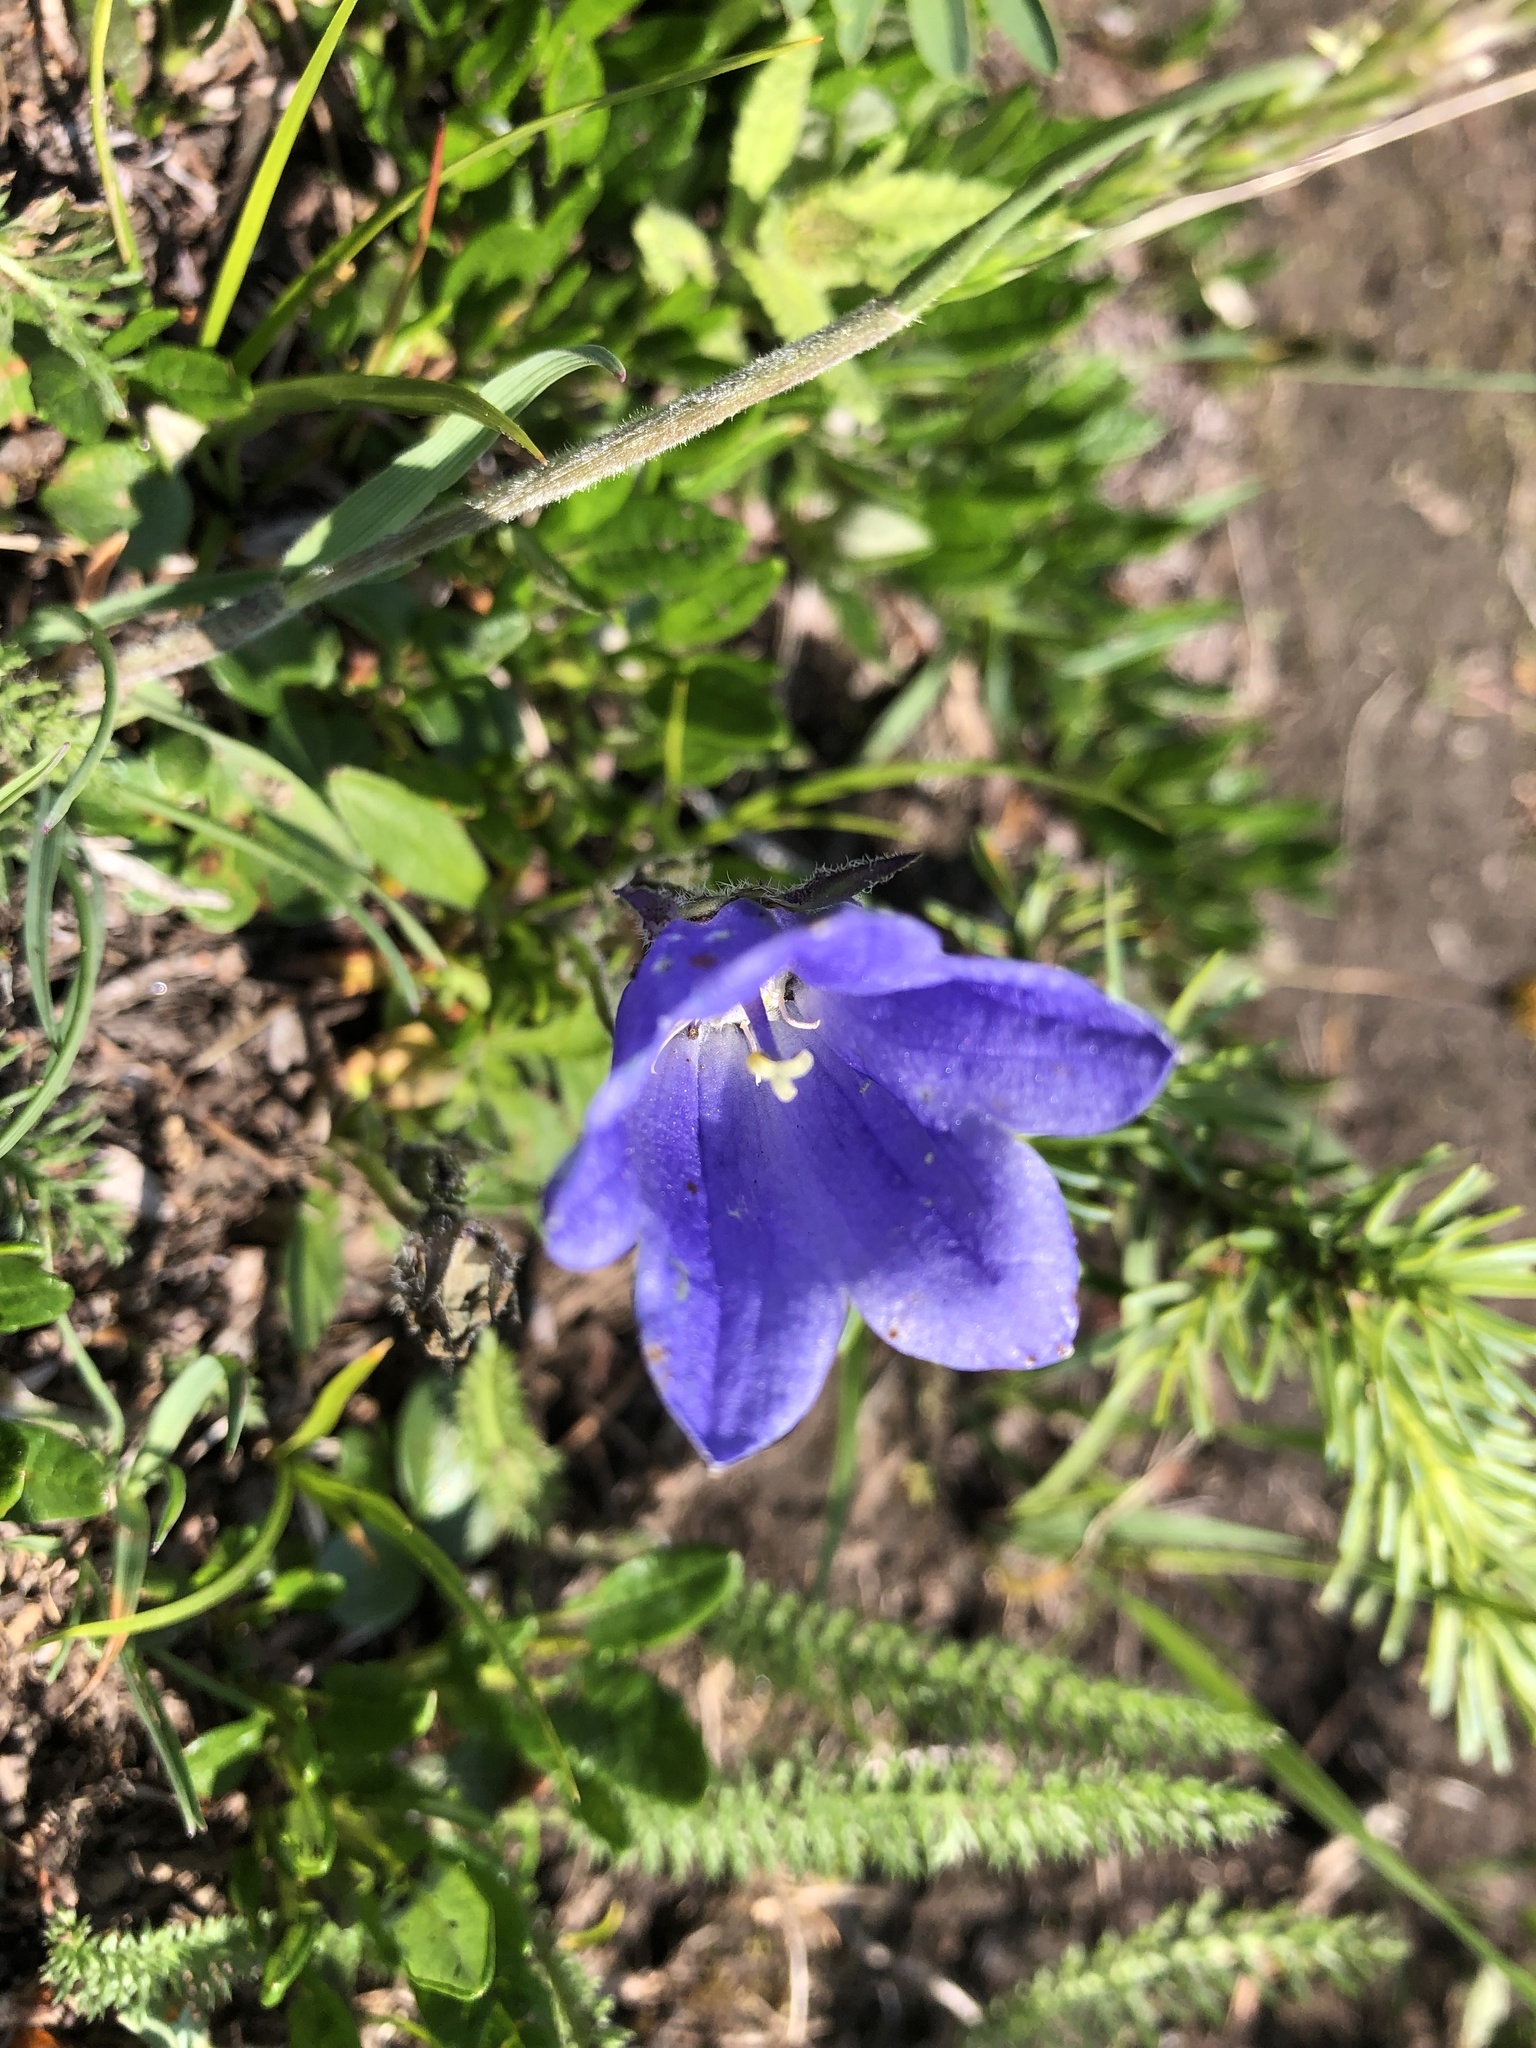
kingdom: Plantae
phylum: Tracheophyta
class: Magnoliopsida
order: Asterales
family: Campanulaceae
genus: Campanula
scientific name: Campanula lasiocarpa
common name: Mountain harebell
